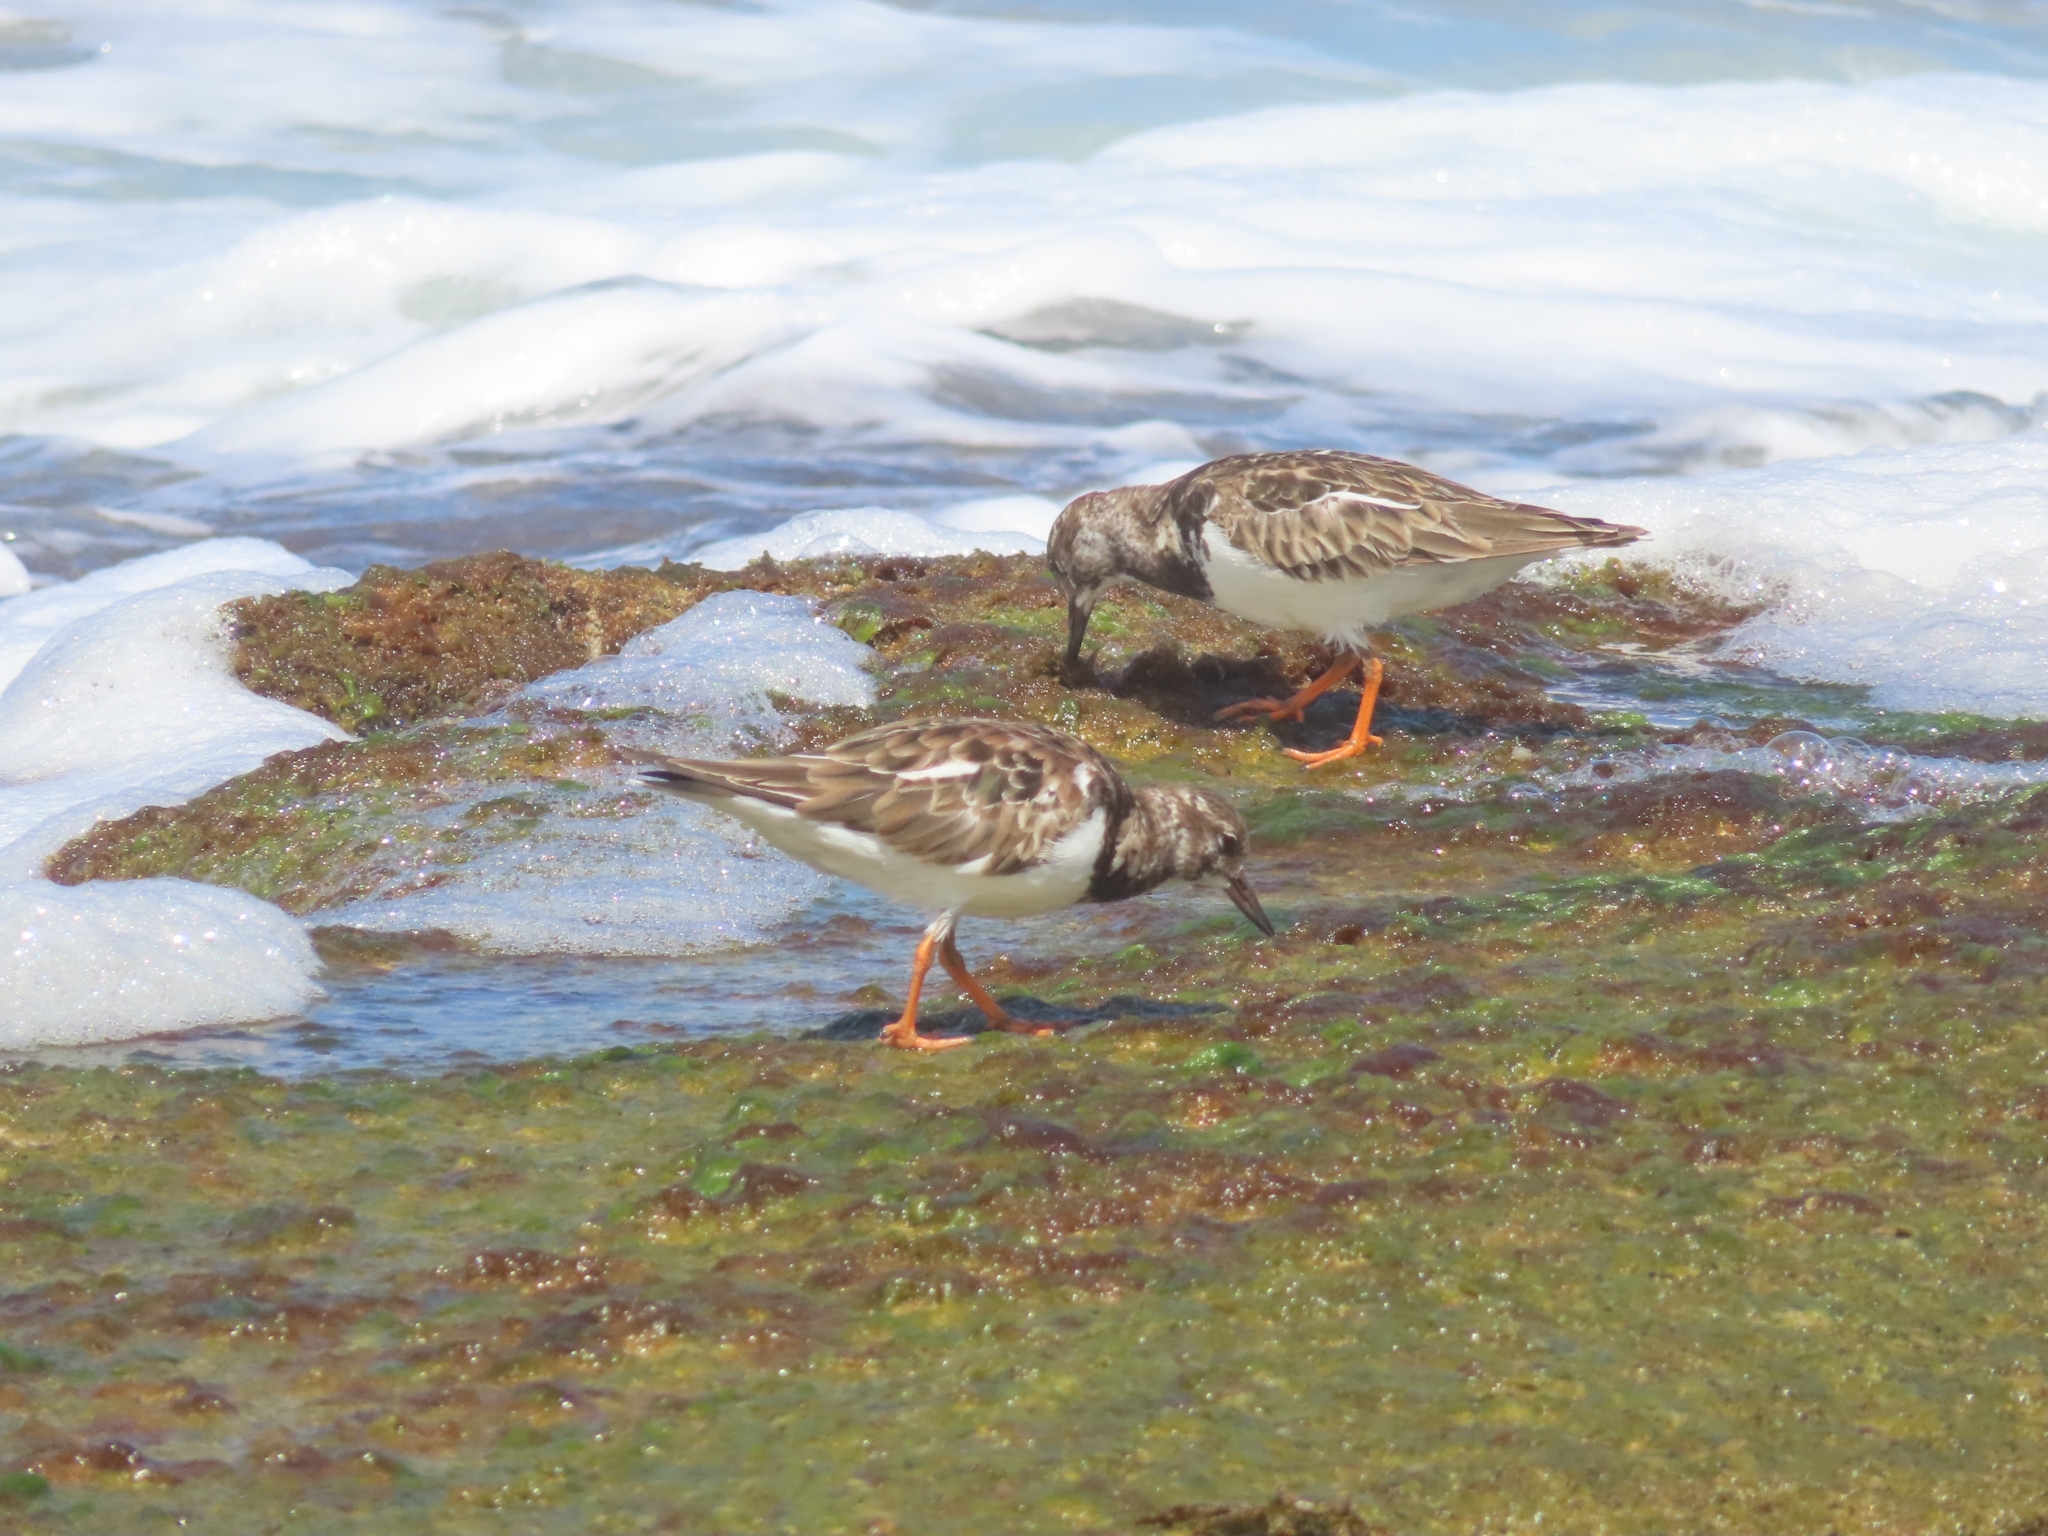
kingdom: Animalia
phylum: Chordata
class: Aves
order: Charadriiformes
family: Scolopacidae
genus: Arenaria
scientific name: Arenaria interpres
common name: Ruddy turnstone
